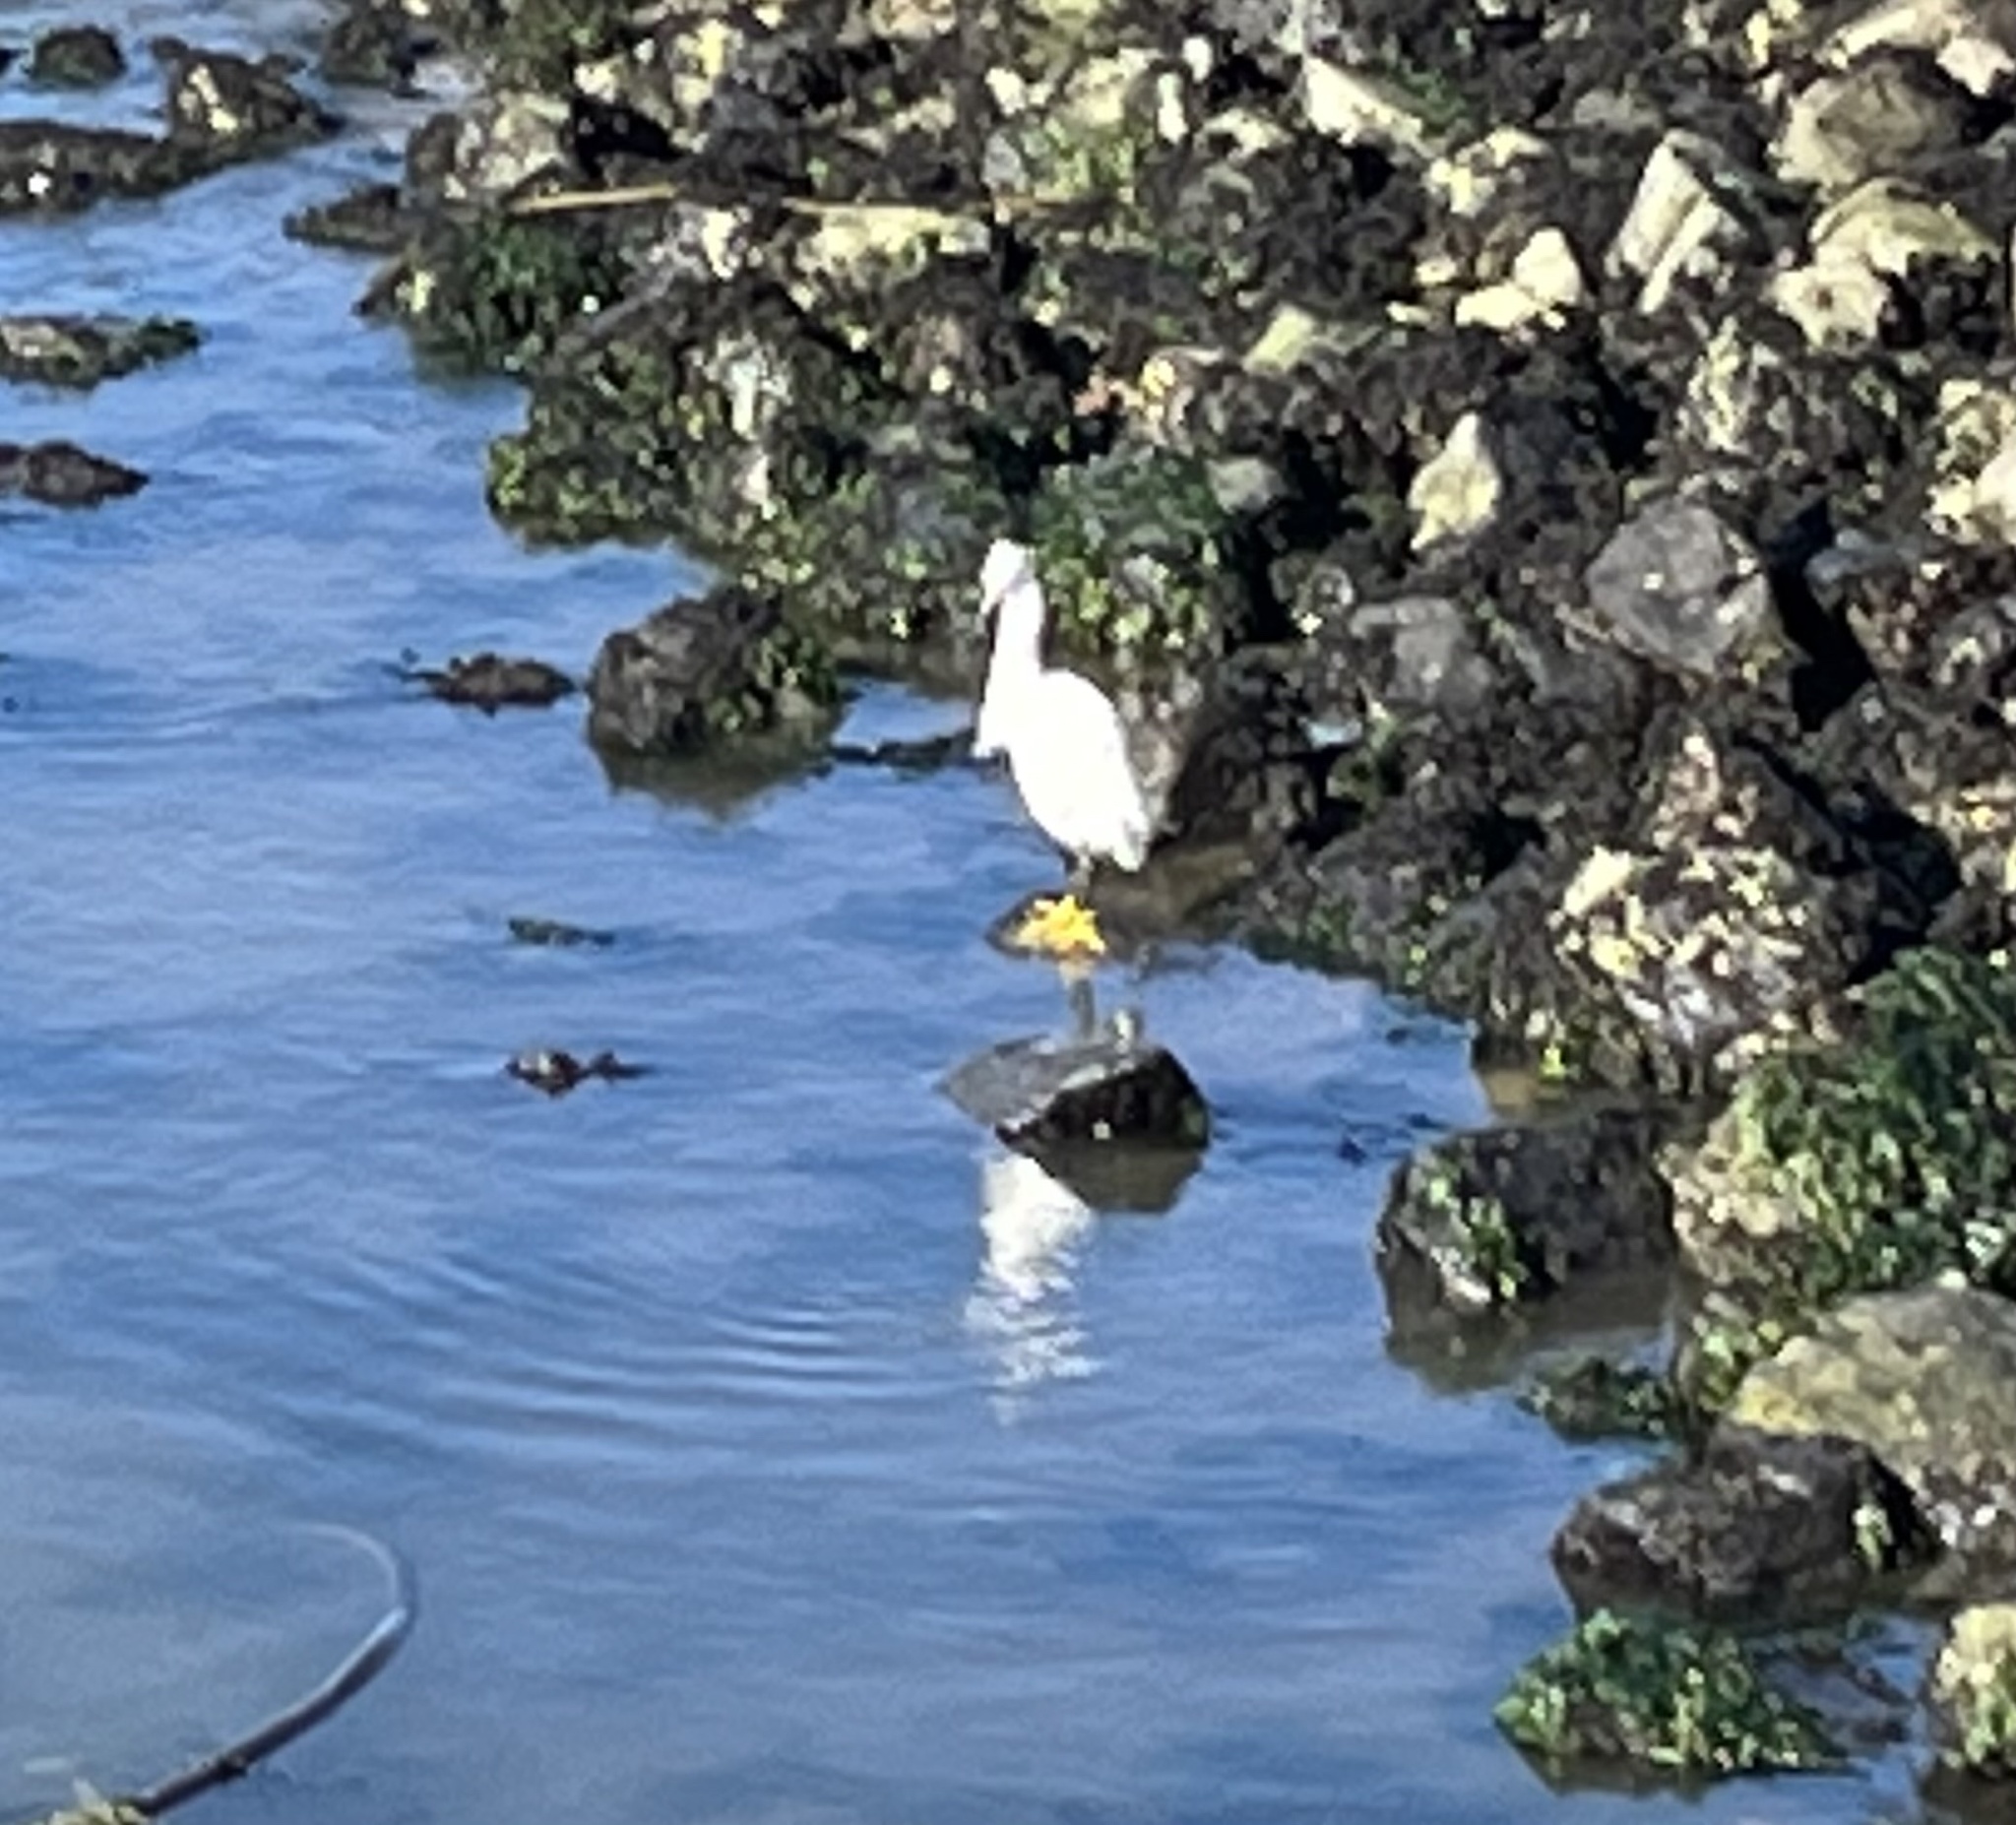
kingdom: Animalia
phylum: Chordata
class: Aves
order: Pelecaniformes
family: Ardeidae
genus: Egretta
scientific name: Egretta thula
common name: Snowy egret
